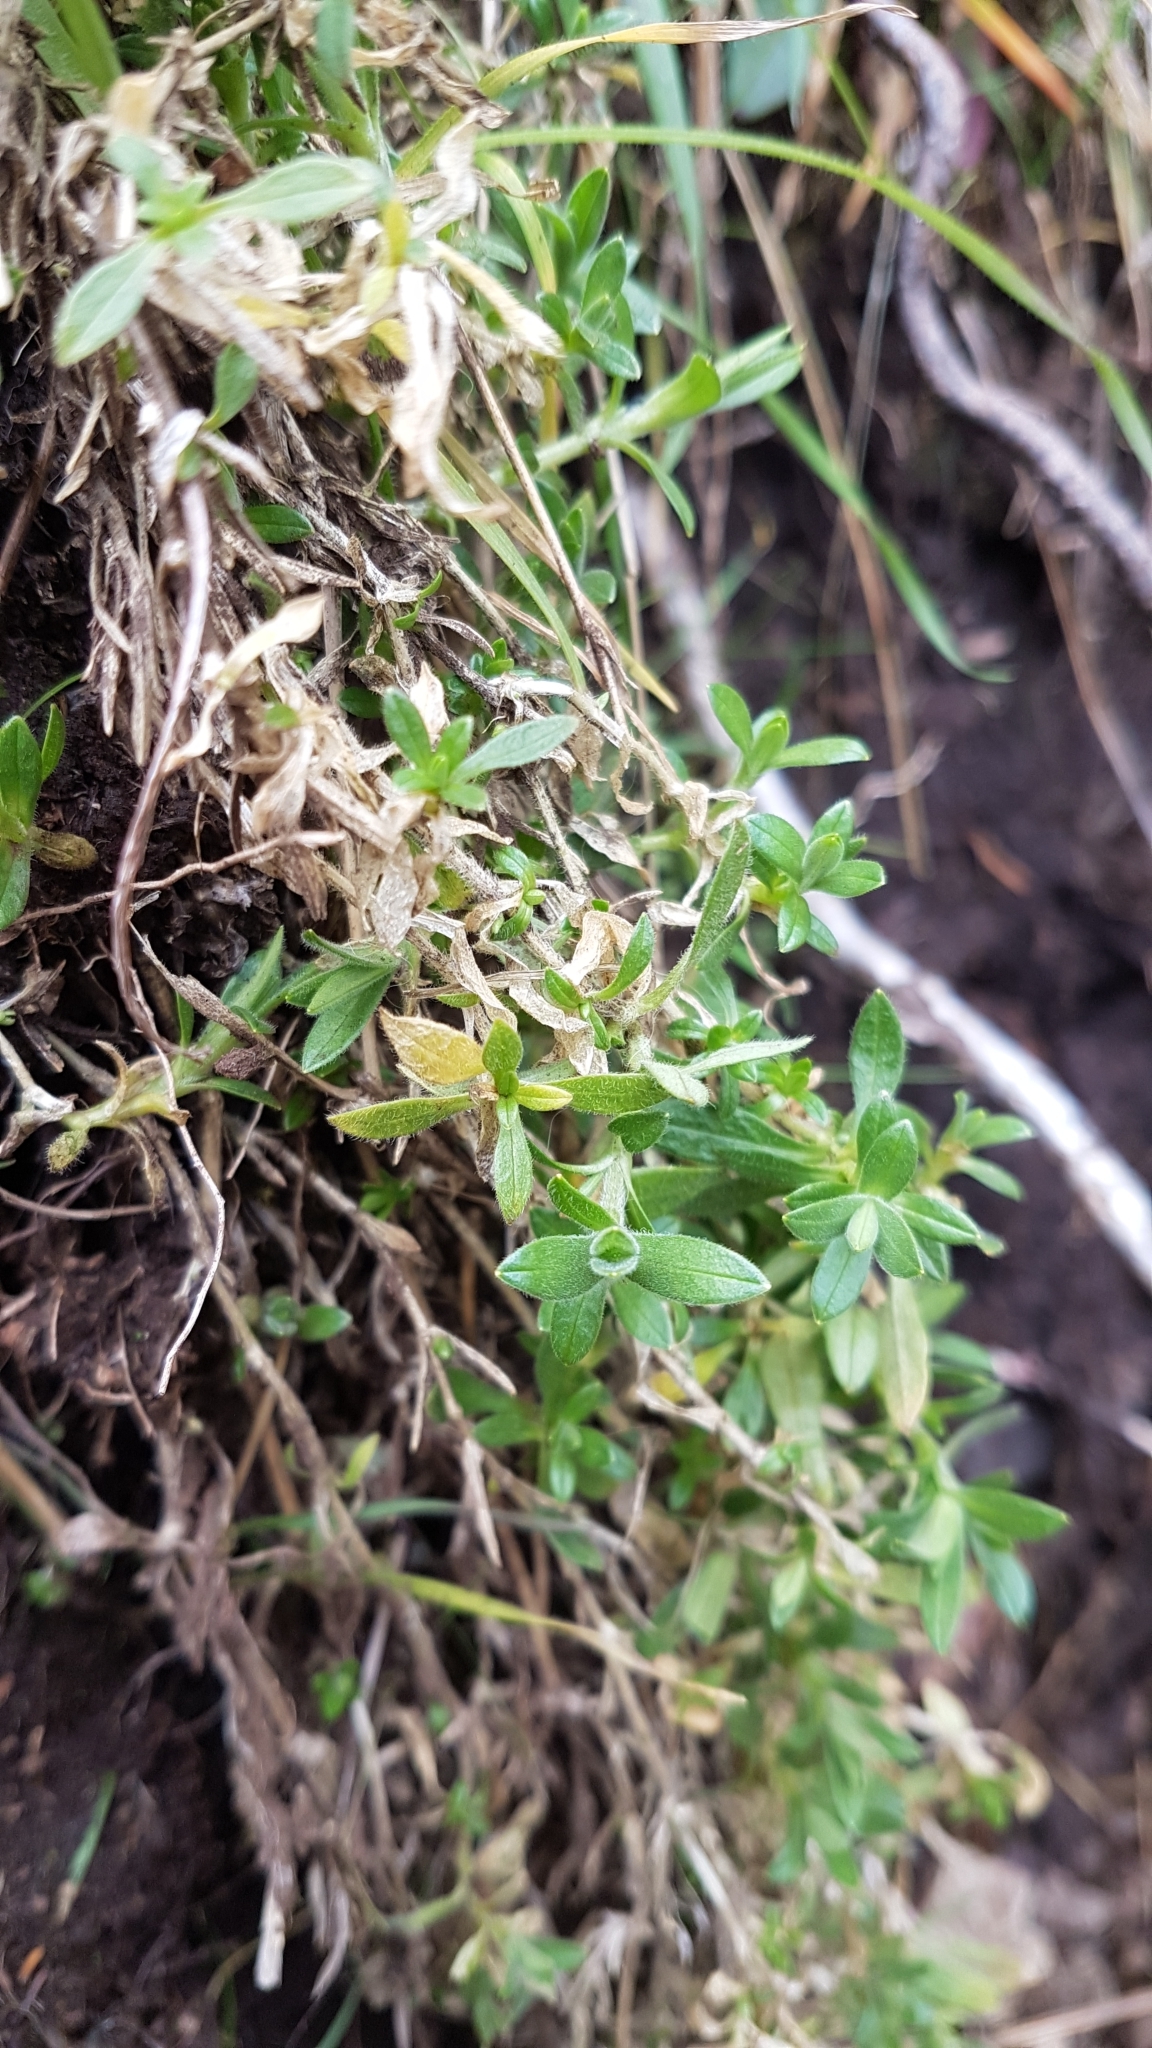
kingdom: Plantae
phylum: Tracheophyta
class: Magnoliopsida
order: Caryophyllales
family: Caryophyllaceae
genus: Cerastium
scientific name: Cerastium arvense
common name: Field mouse-ear
